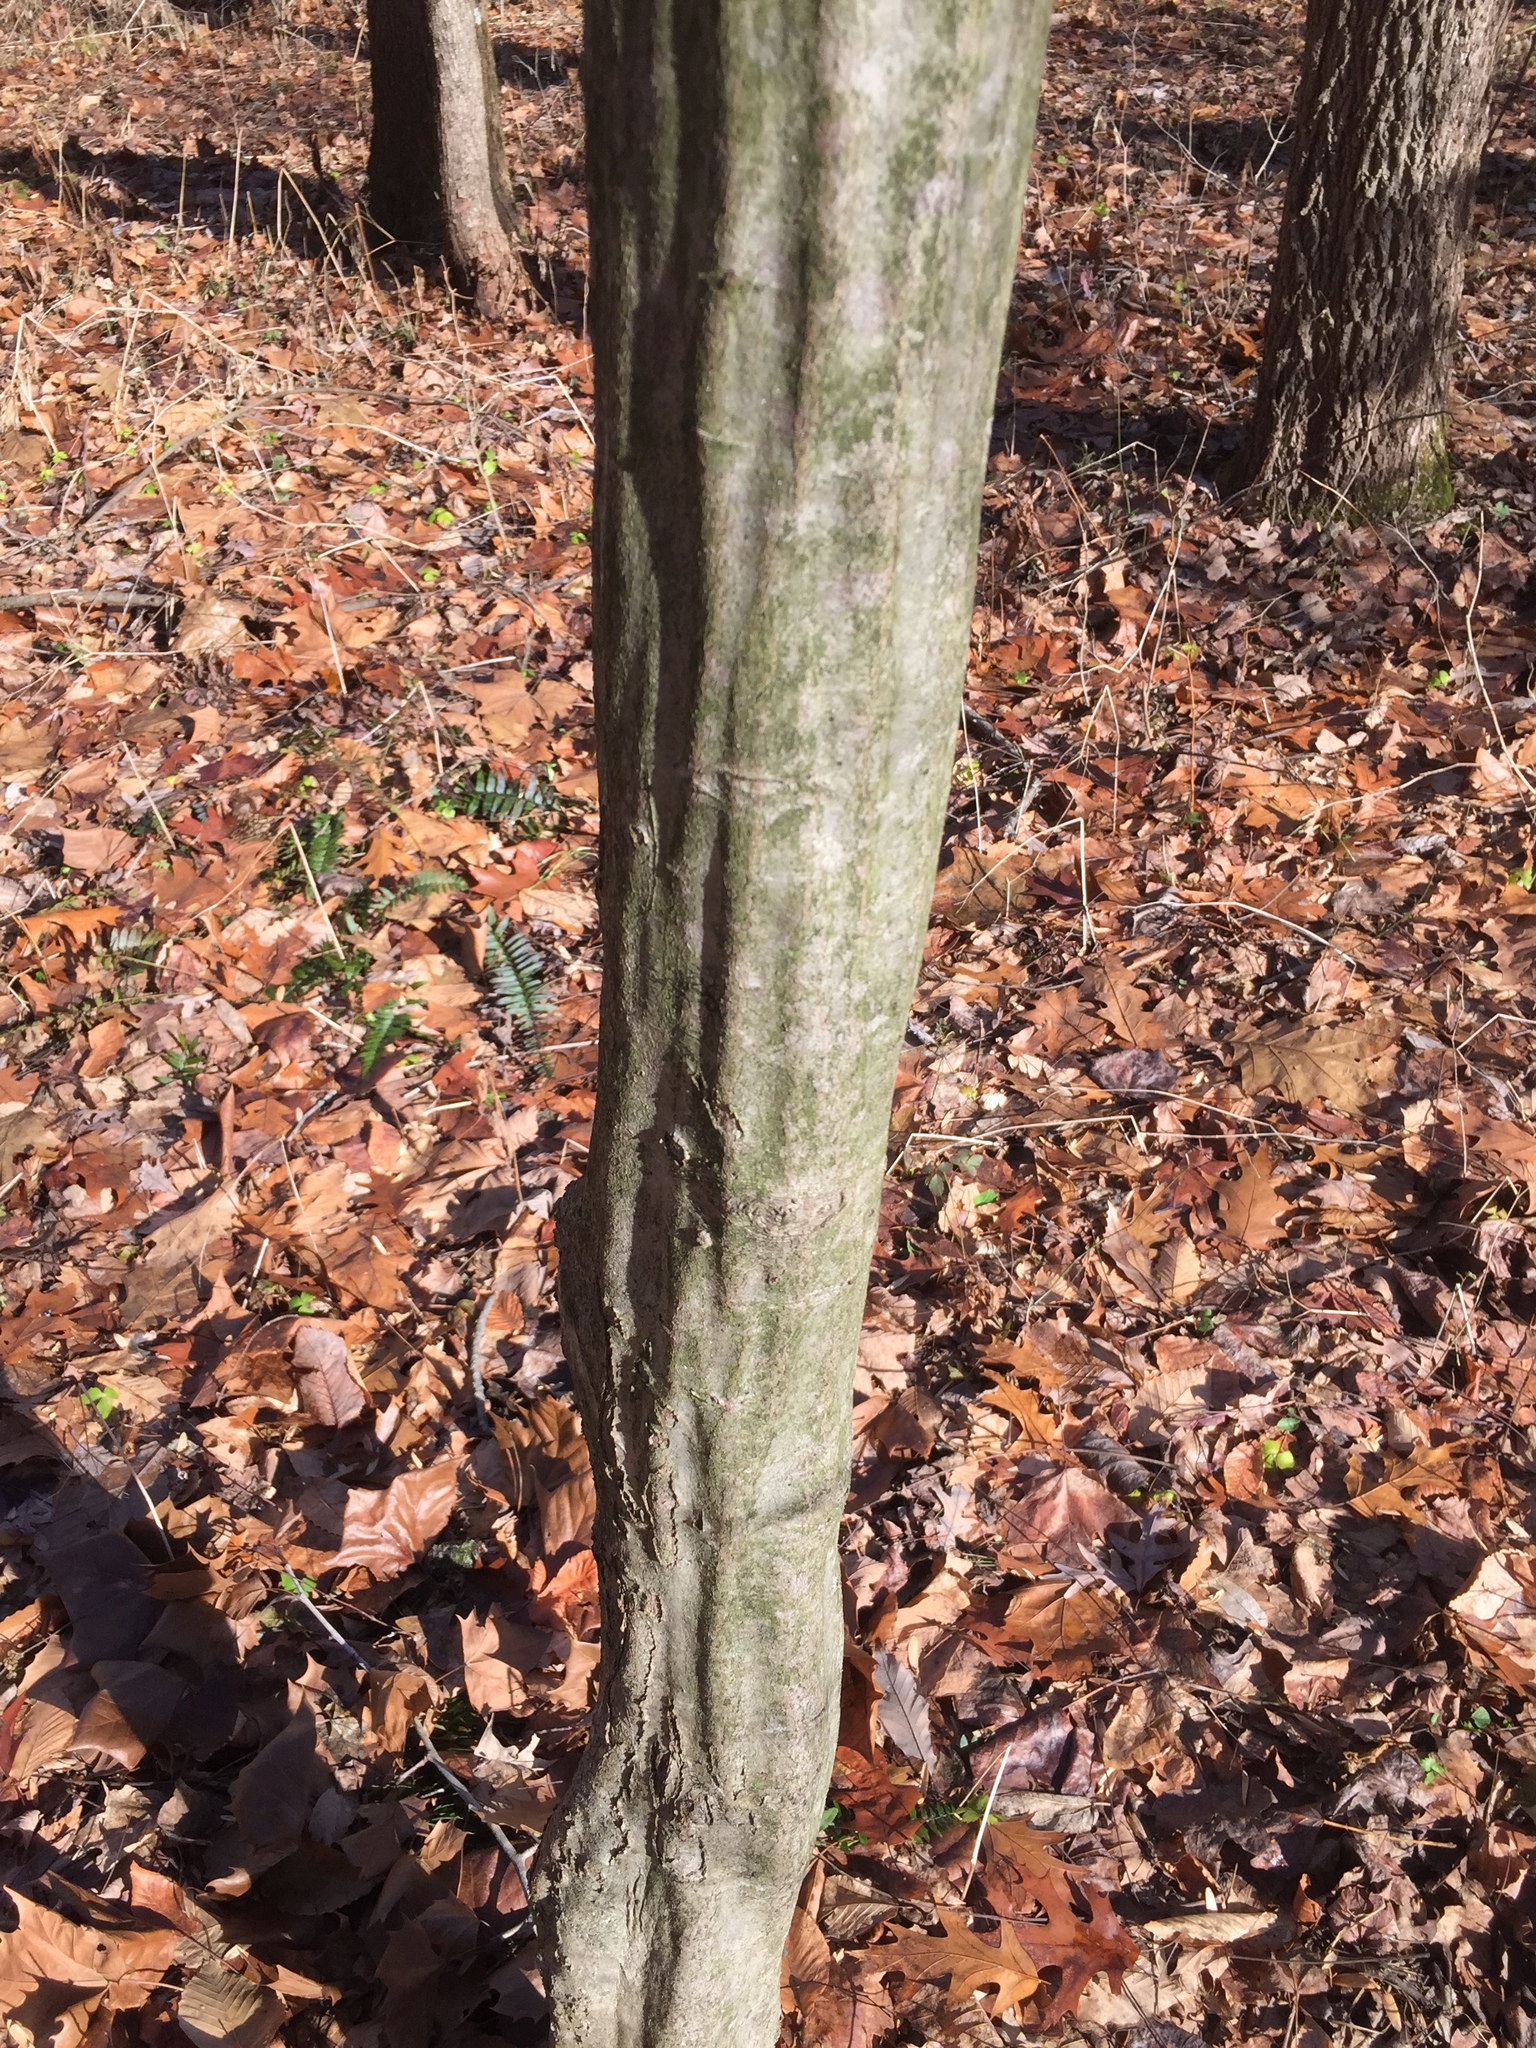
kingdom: Plantae
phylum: Tracheophyta
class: Magnoliopsida
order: Fagales
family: Betulaceae
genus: Carpinus
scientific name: Carpinus caroliniana
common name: American hornbeam
